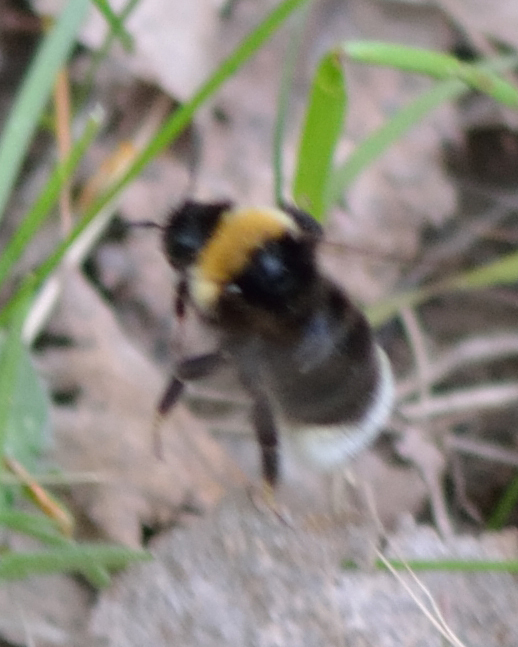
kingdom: Animalia
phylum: Arthropoda
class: Insecta
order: Hymenoptera
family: Apidae
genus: Bombus
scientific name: Bombus bohemicus
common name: Gypsy cuckoo bee
